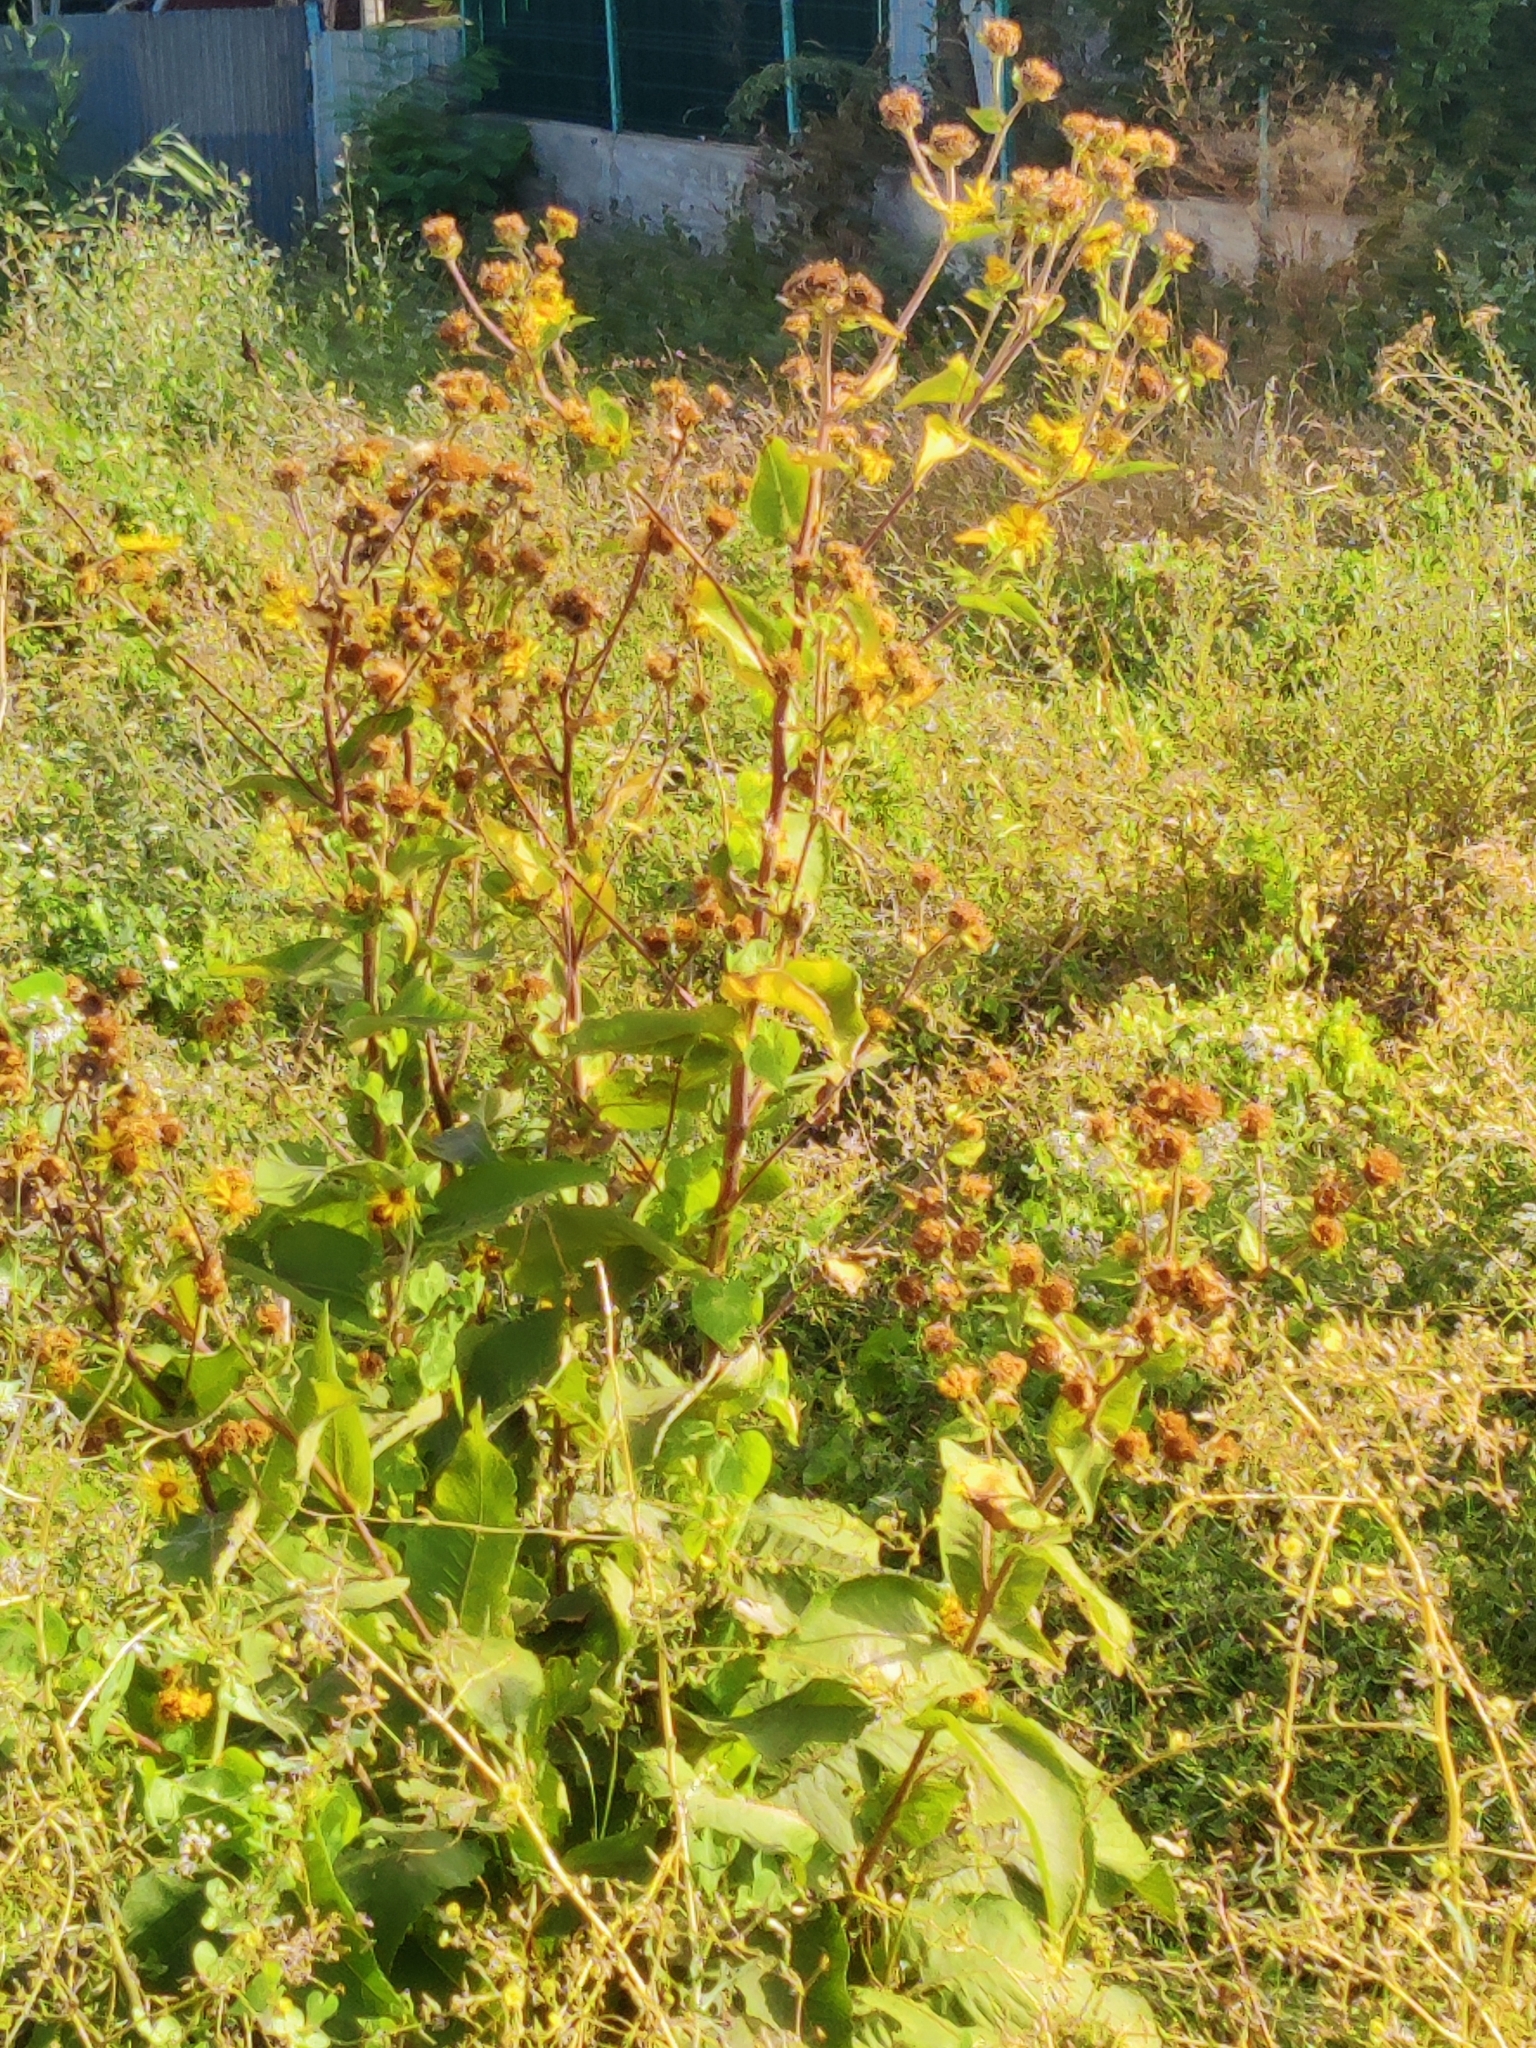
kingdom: Plantae
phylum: Tracheophyta
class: Magnoliopsida
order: Asterales
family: Asteraceae
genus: Inula
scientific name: Inula helenium
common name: Elecampane
